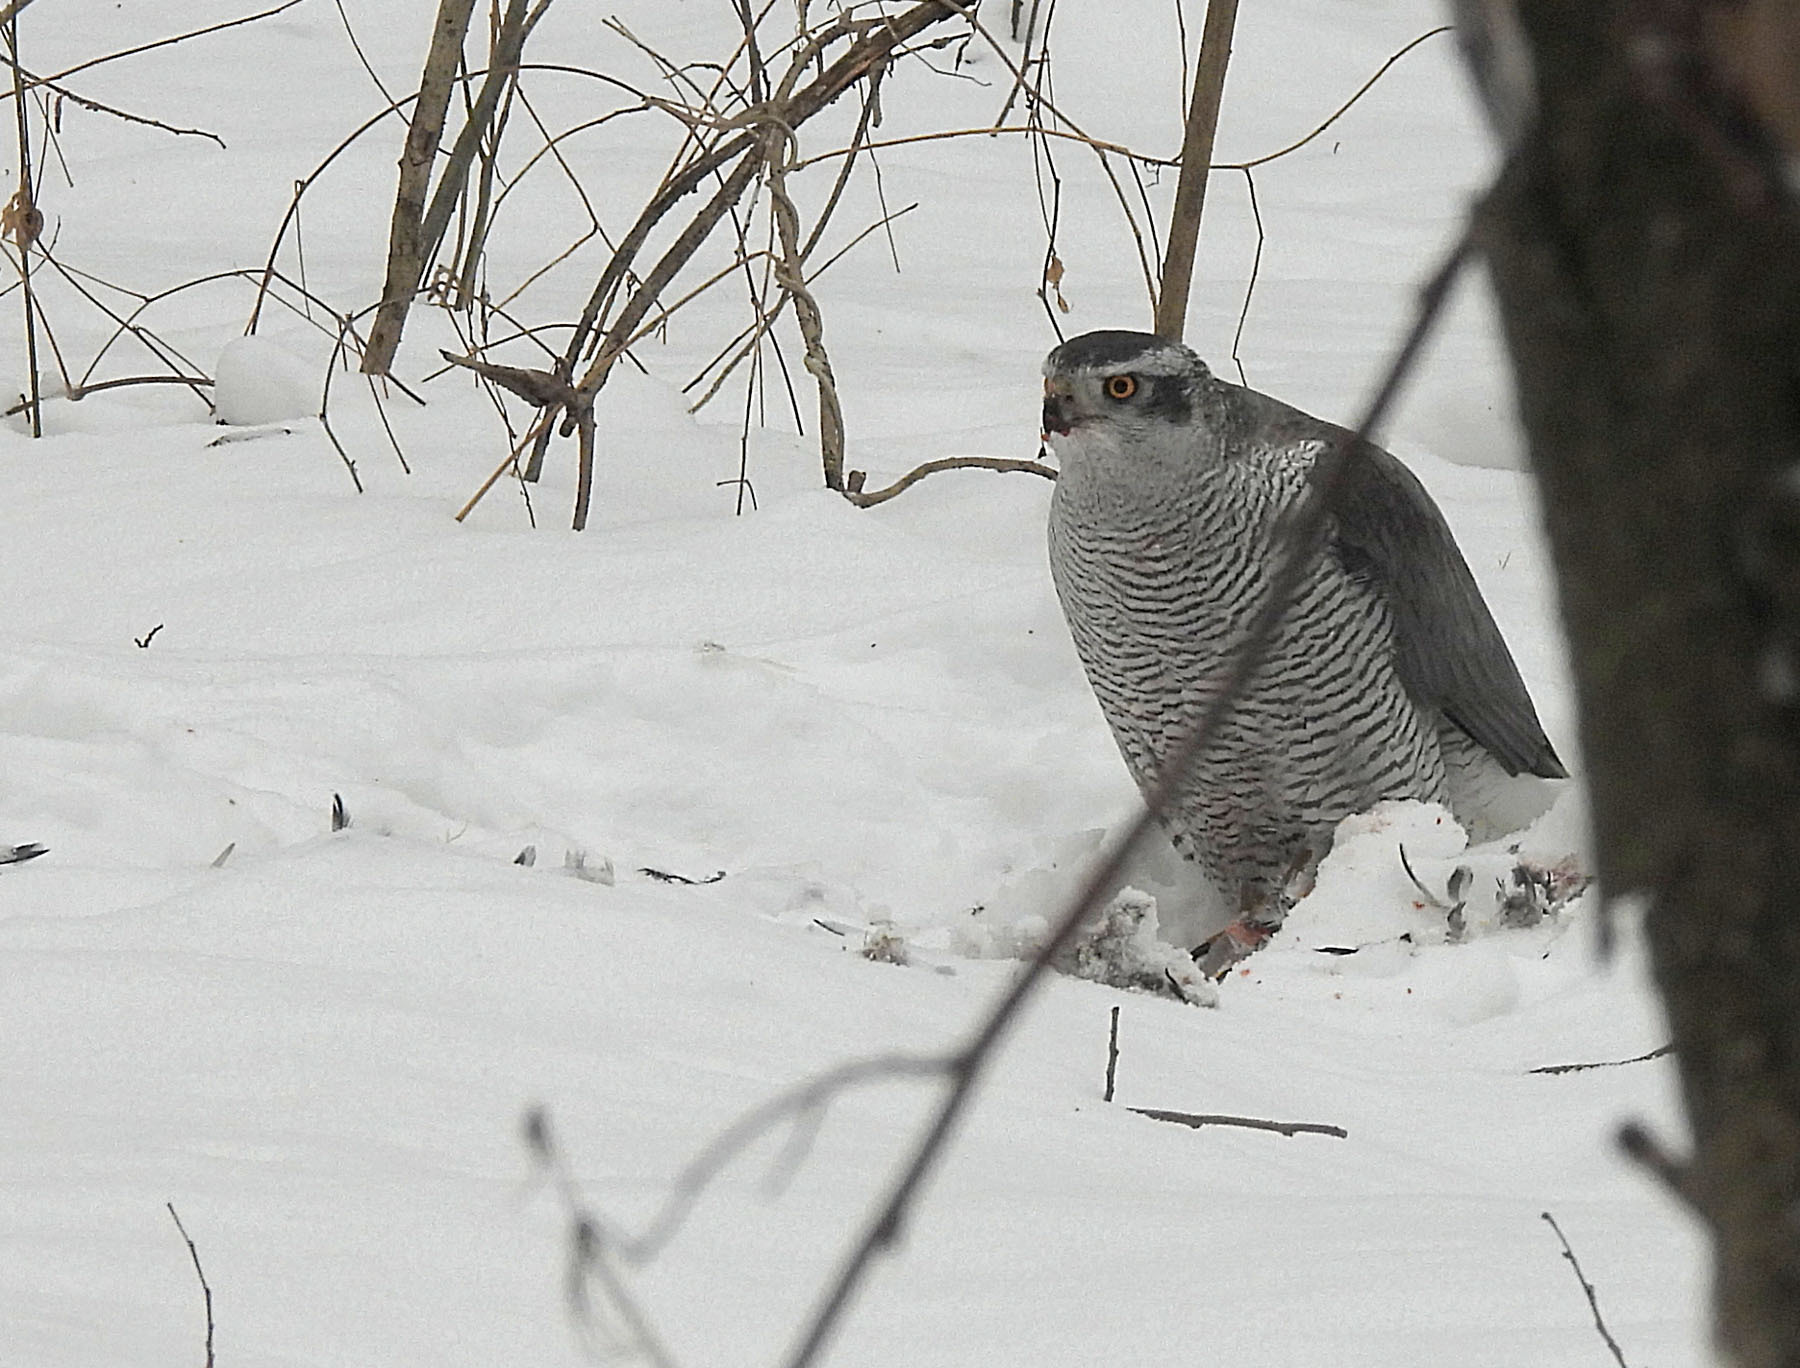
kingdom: Animalia
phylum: Chordata
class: Aves
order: Accipitriformes
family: Accipitridae
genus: Accipiter
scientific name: Accipiter gentilis
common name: Northern goshawk
